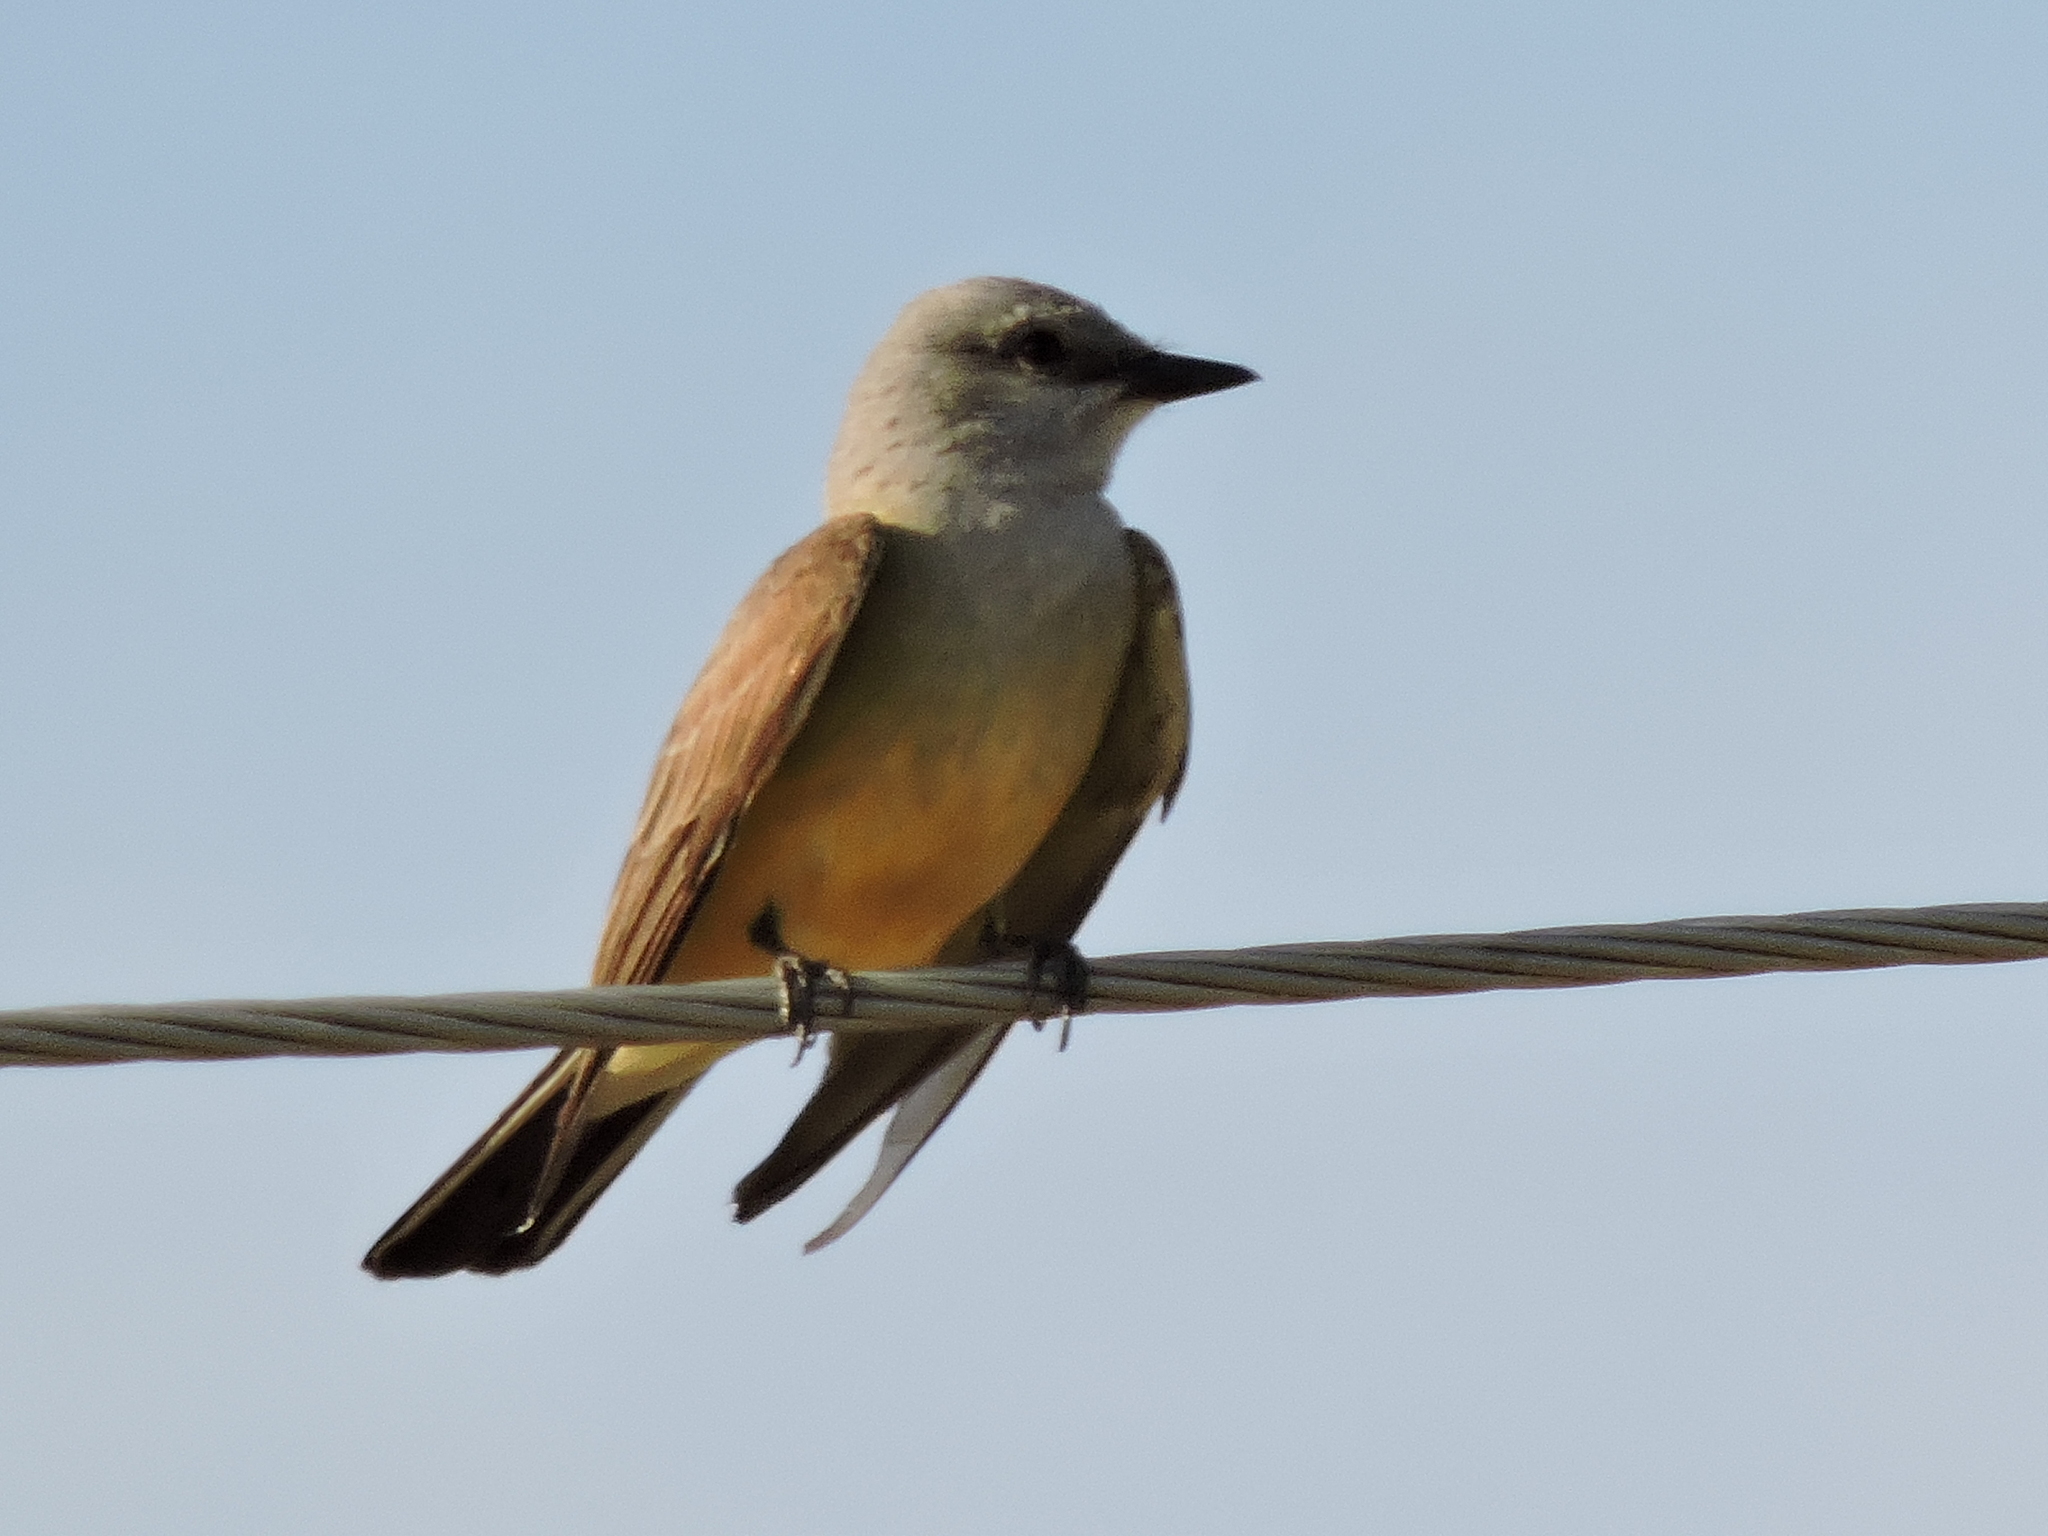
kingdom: Animalia
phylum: Chordata
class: Aves
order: Passeriformes
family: Tyrannidae
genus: Tyrannus
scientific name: Tyrannus verticalis
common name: Western kingbird
